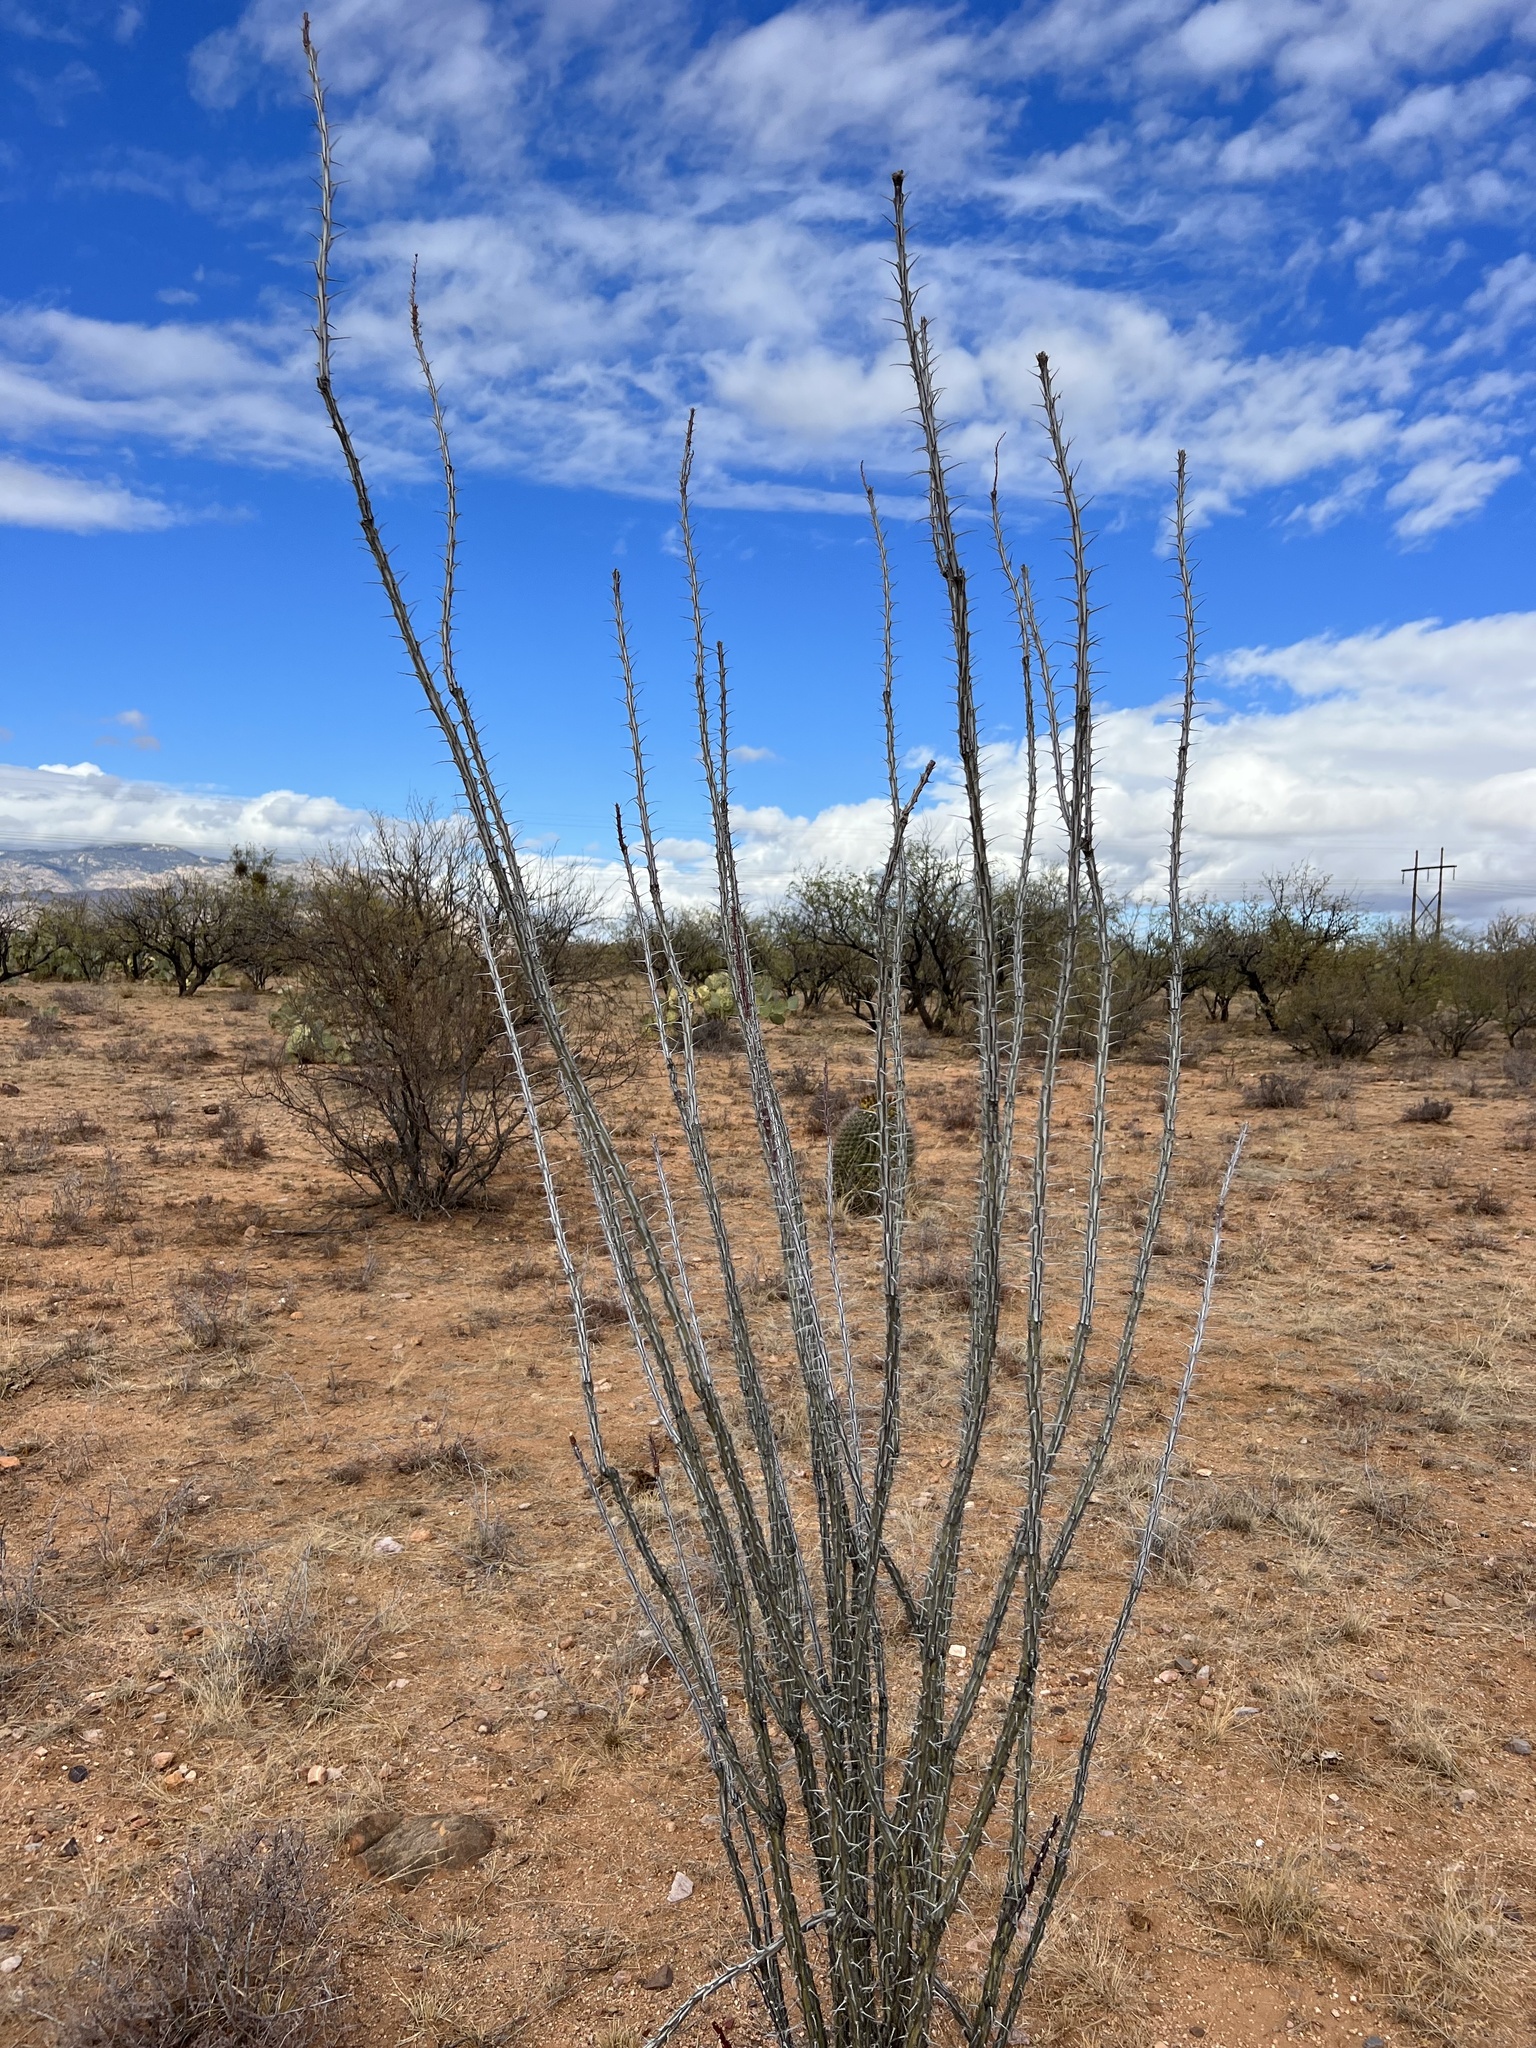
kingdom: Plantae
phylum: Tracheophyta
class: Magnoliopsida
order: Ericales
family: Fouquieriaceae
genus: Fouquieria
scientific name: Fouquieria splendens
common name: Vine-cactus
